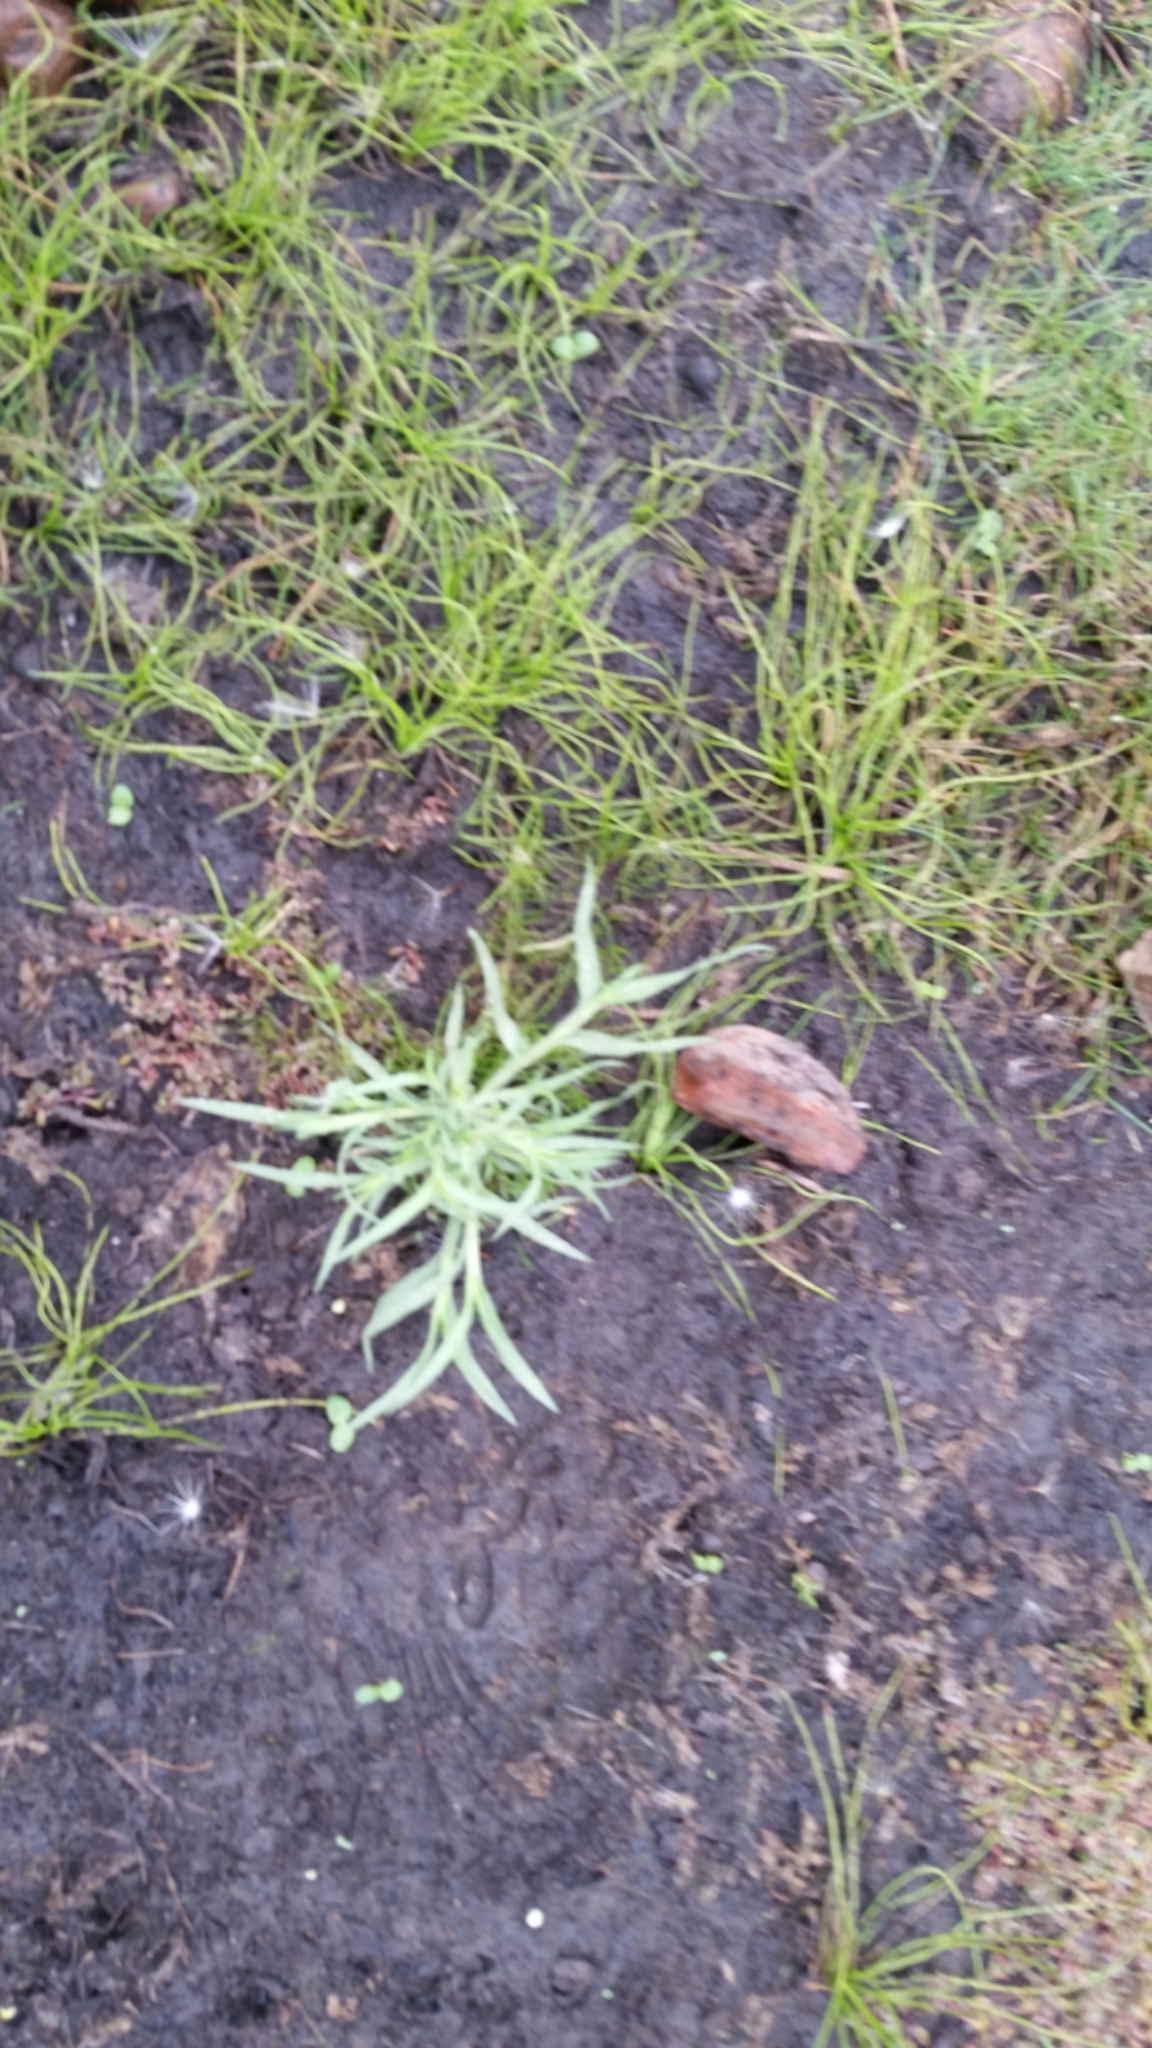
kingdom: Plantae
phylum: Tracheophyta
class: Liliopsida
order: Poales
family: Poaceae
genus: Orcuttia
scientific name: Orcuttia californica
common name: California orcutt grass
